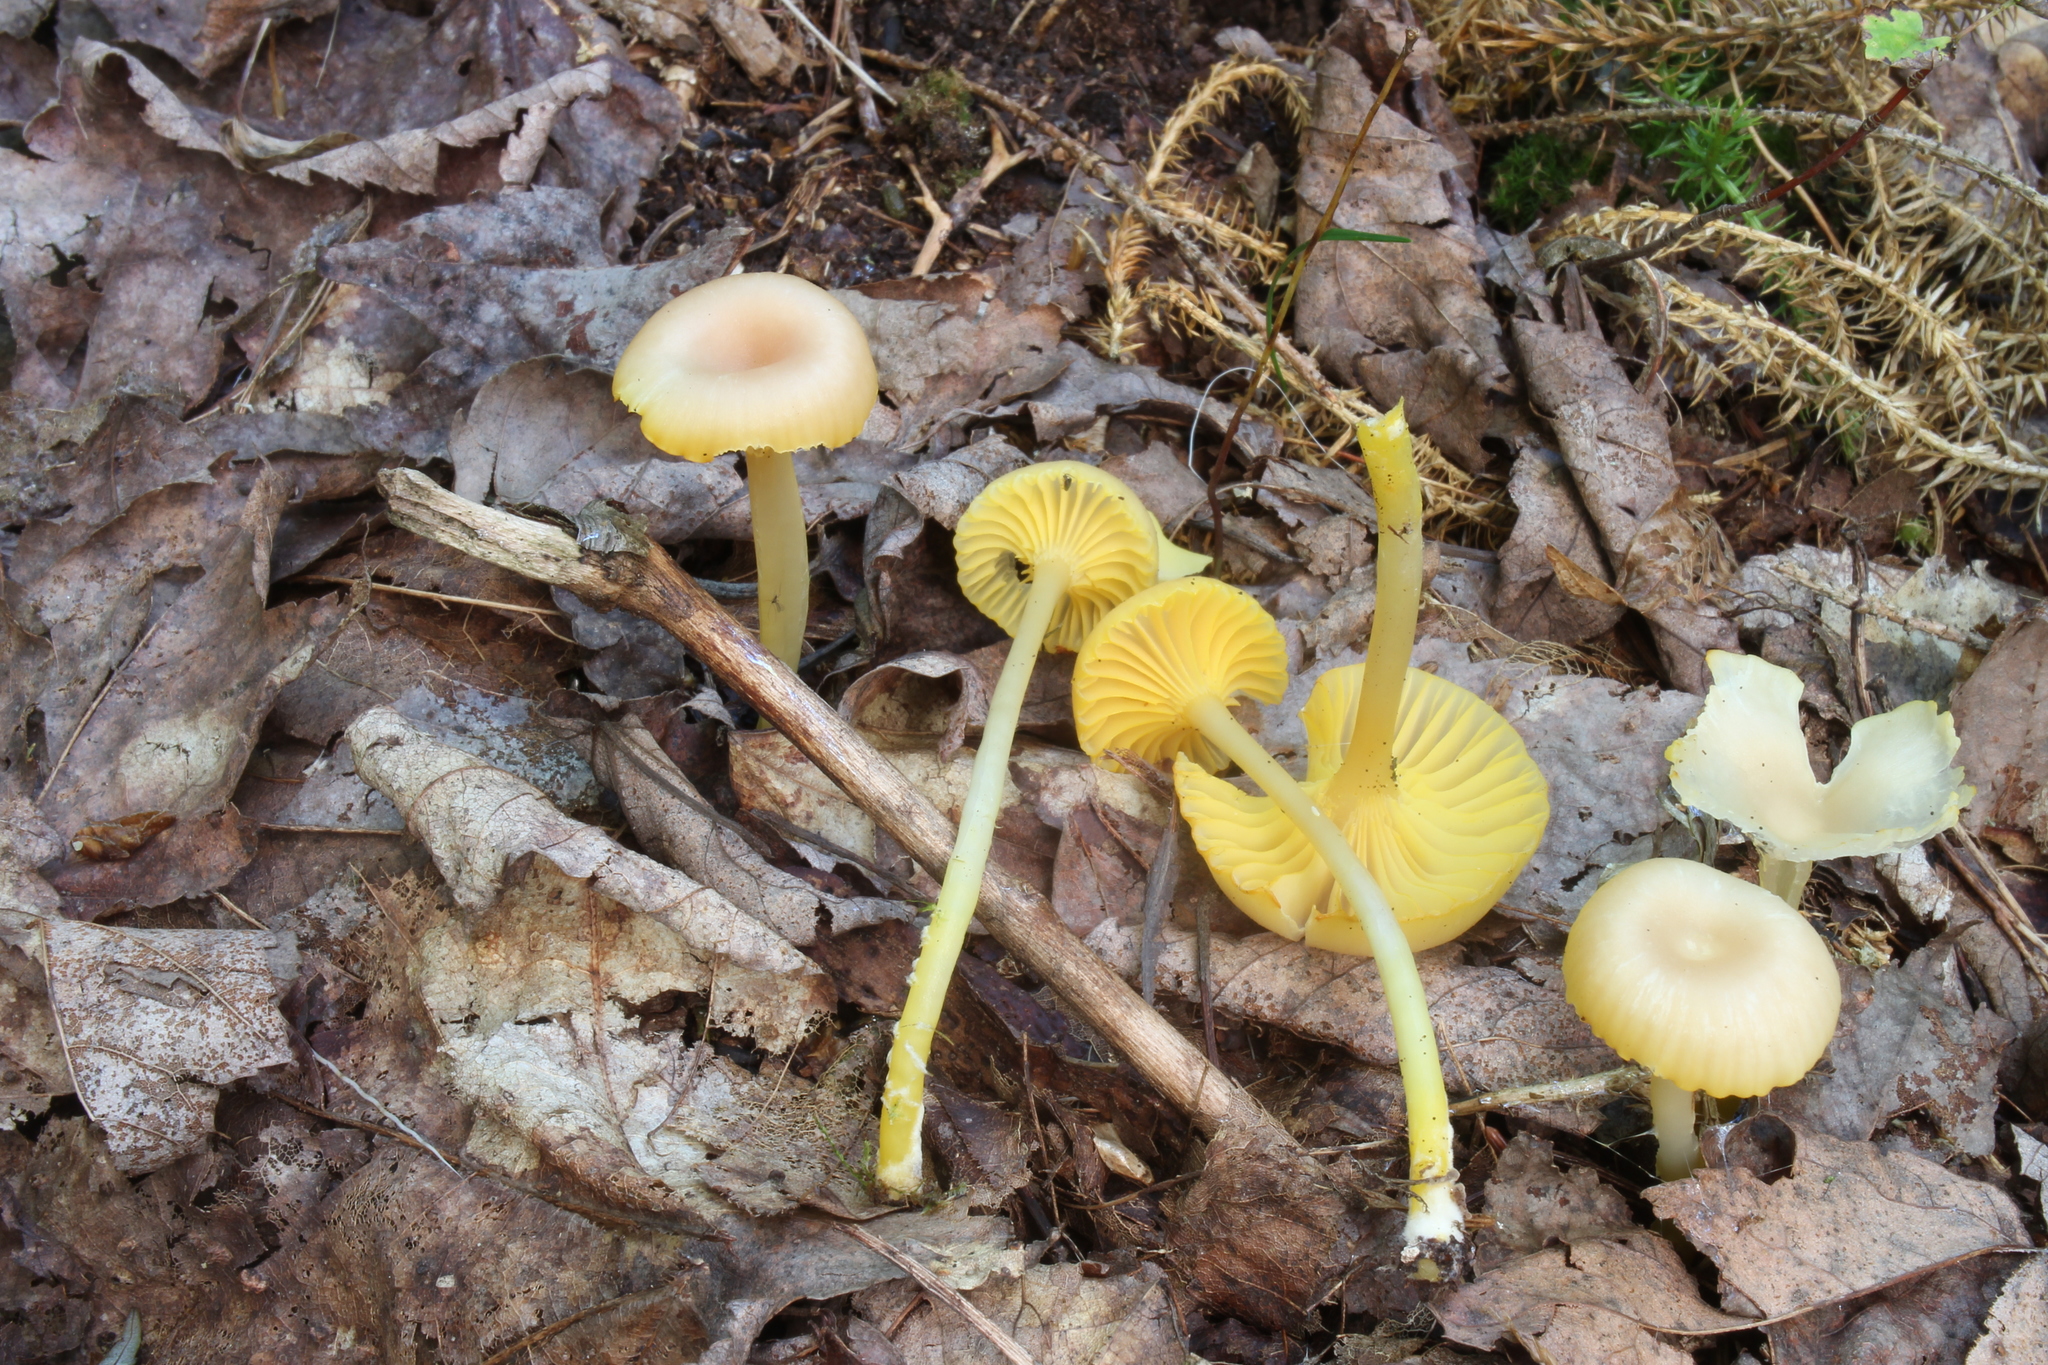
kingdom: Fungi
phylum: Basidiomycota
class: Agaricomycetes
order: Agaricales
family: Hygrophoraceae
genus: Gloioxanthomyces
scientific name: Gloioxanthomyces nitidus
